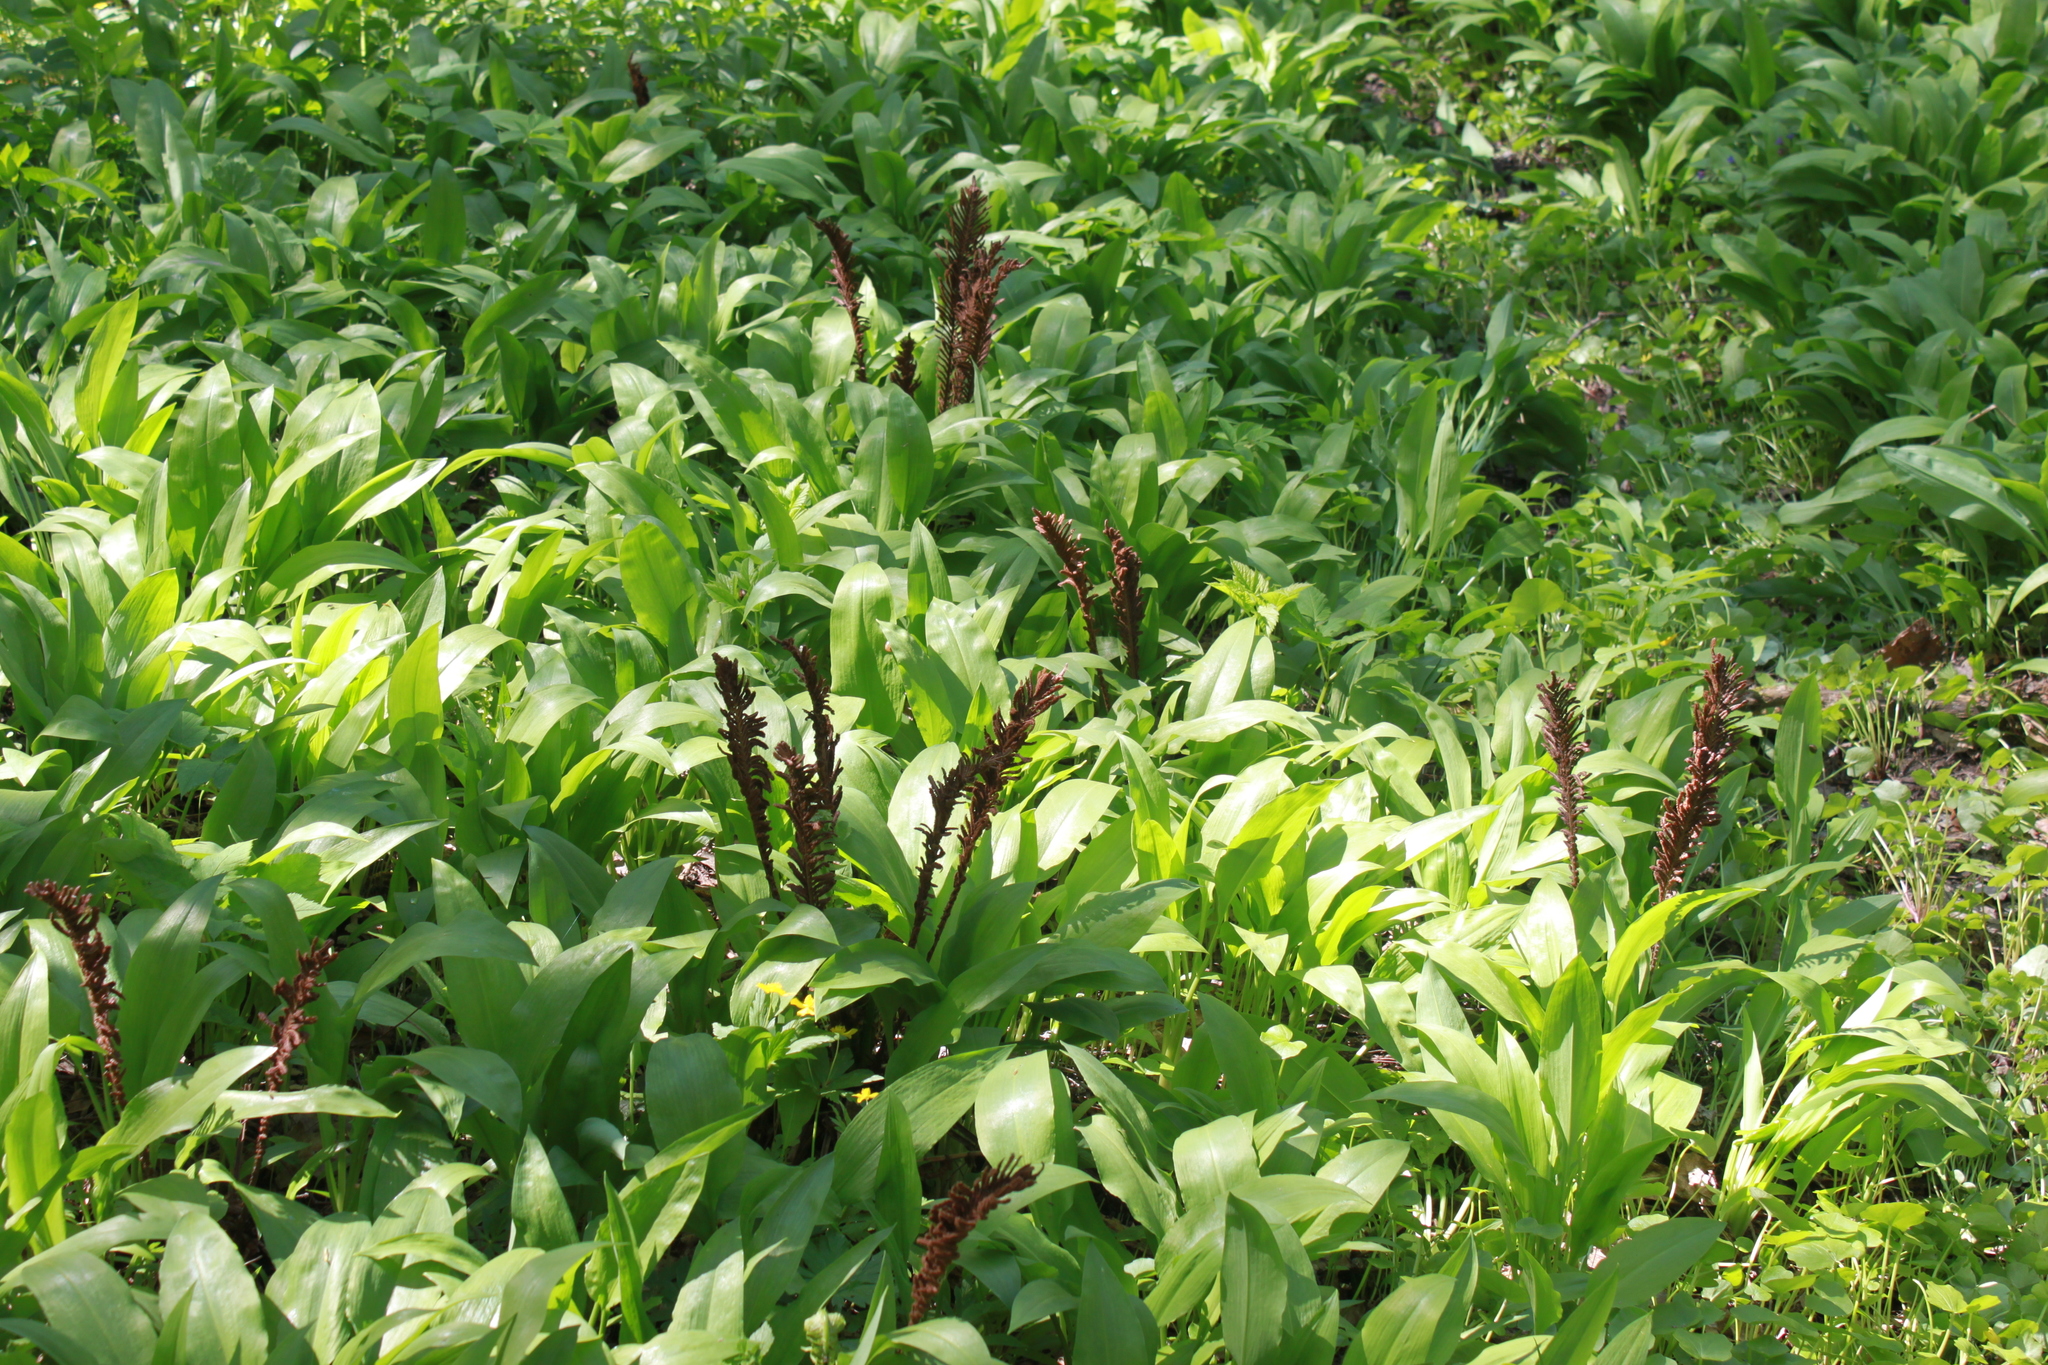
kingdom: Plantae
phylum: Tracheophyta
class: Liliopsida
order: Asparagales
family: Amaryllidaceae
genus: Allium
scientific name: Allium ursinum
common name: Ramsons
